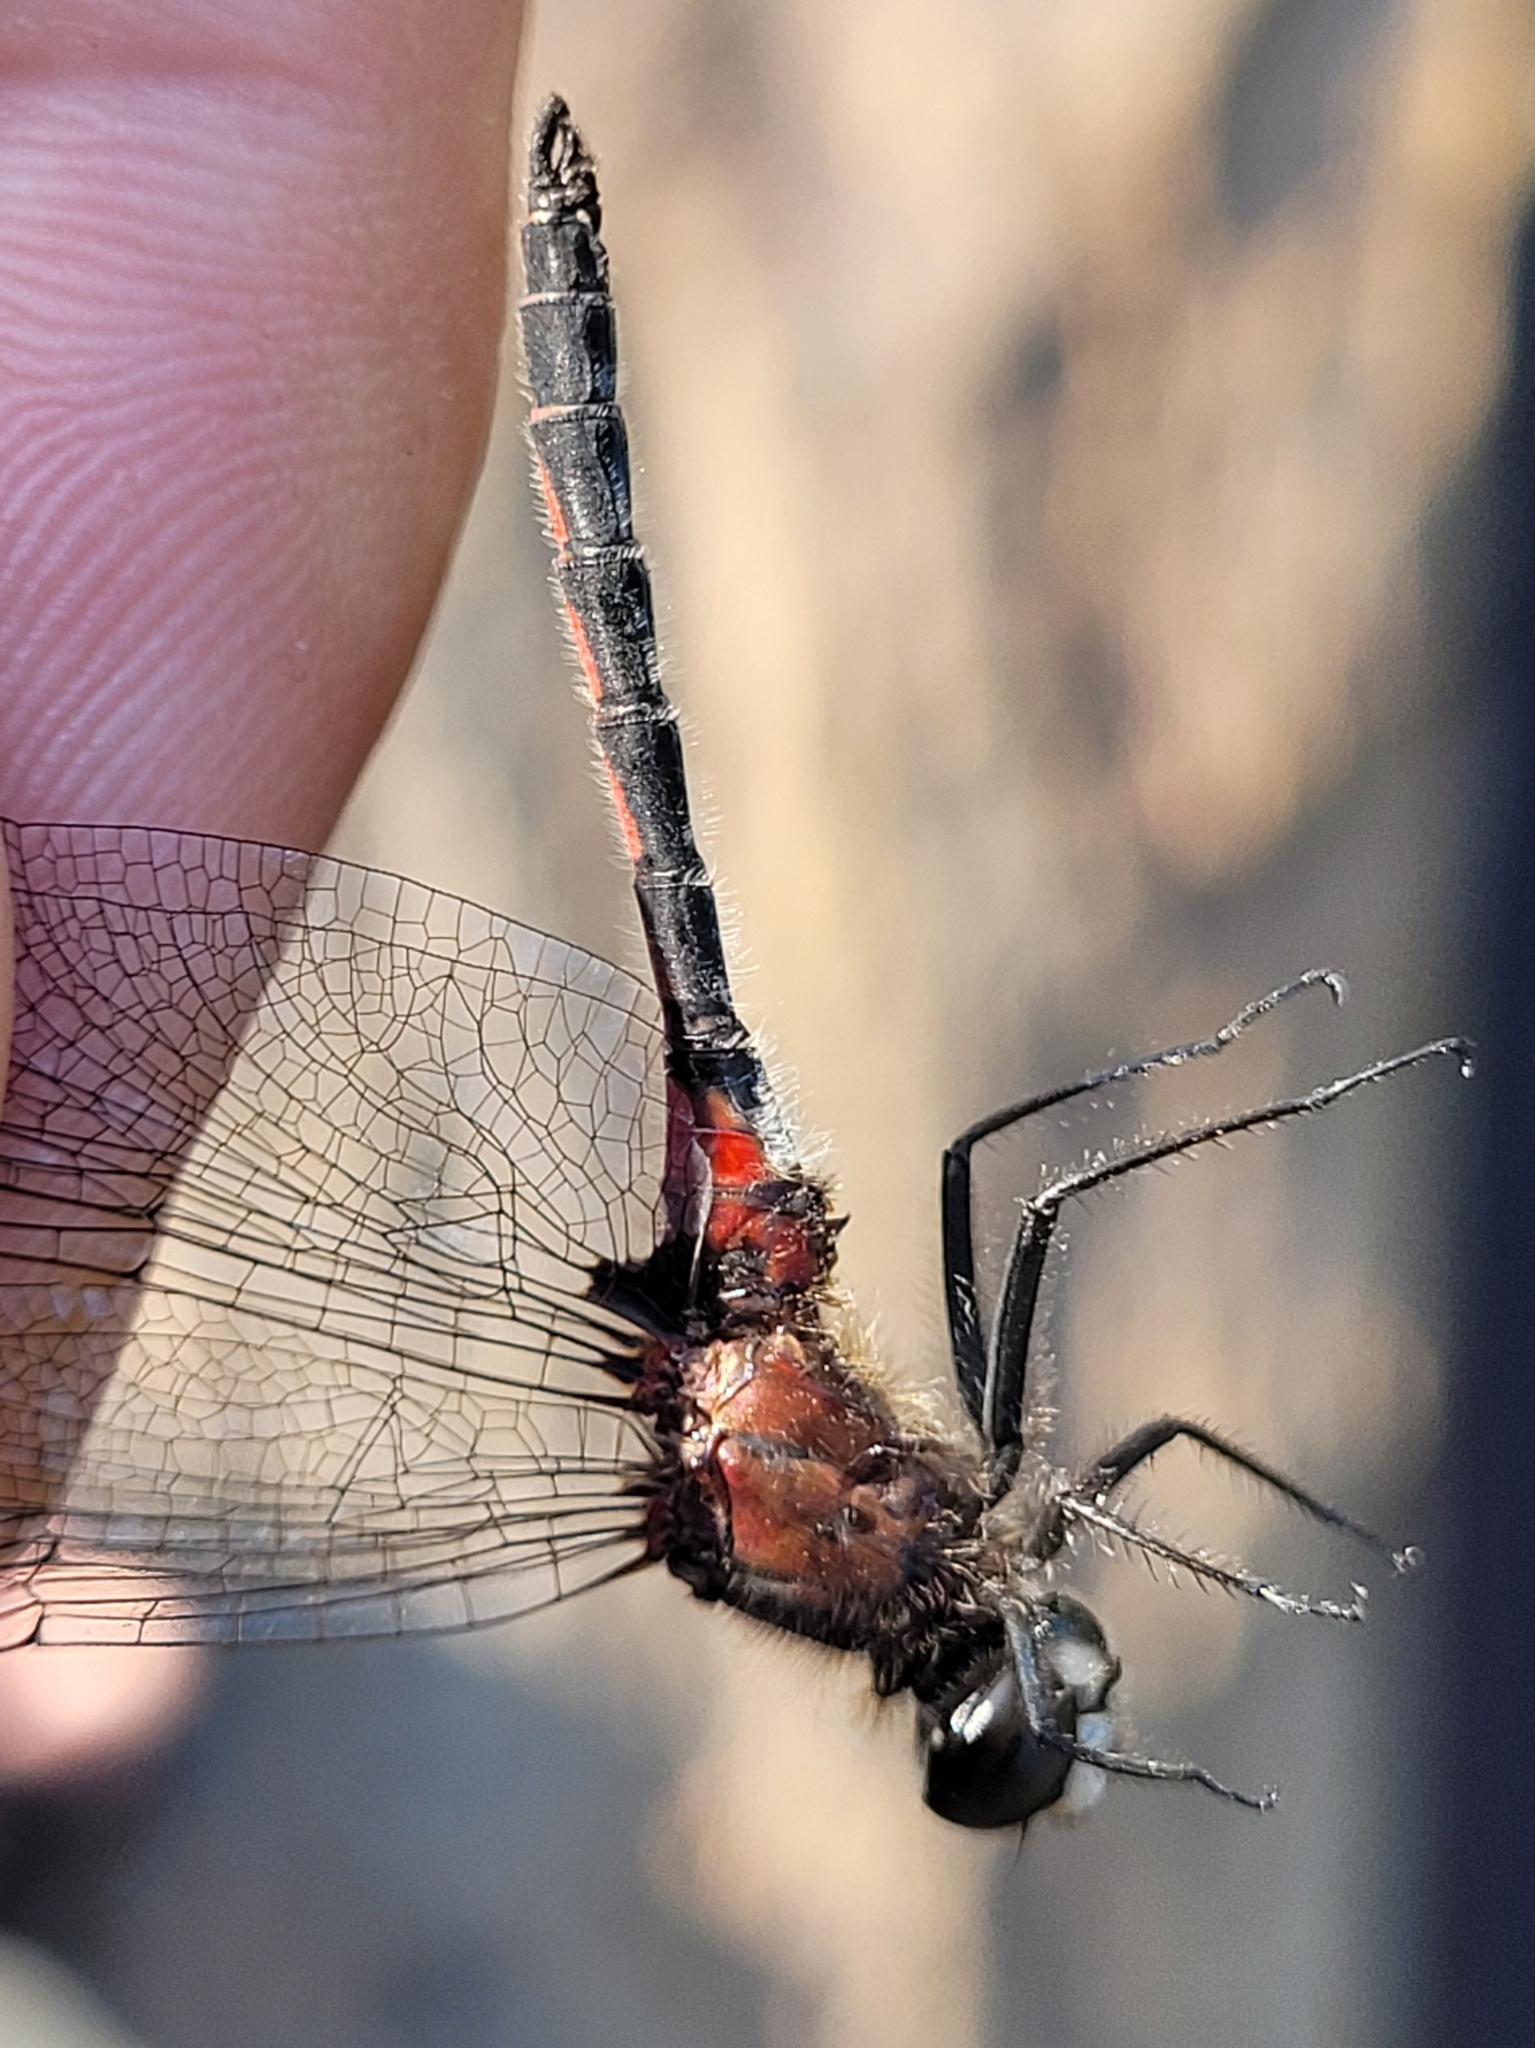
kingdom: Animalia
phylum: Arthropoda
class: Insecta
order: Odonata
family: Libellulidae
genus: Leucorrhinia
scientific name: Leucorrhinia hudsonica
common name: Hudsonian whiteface
